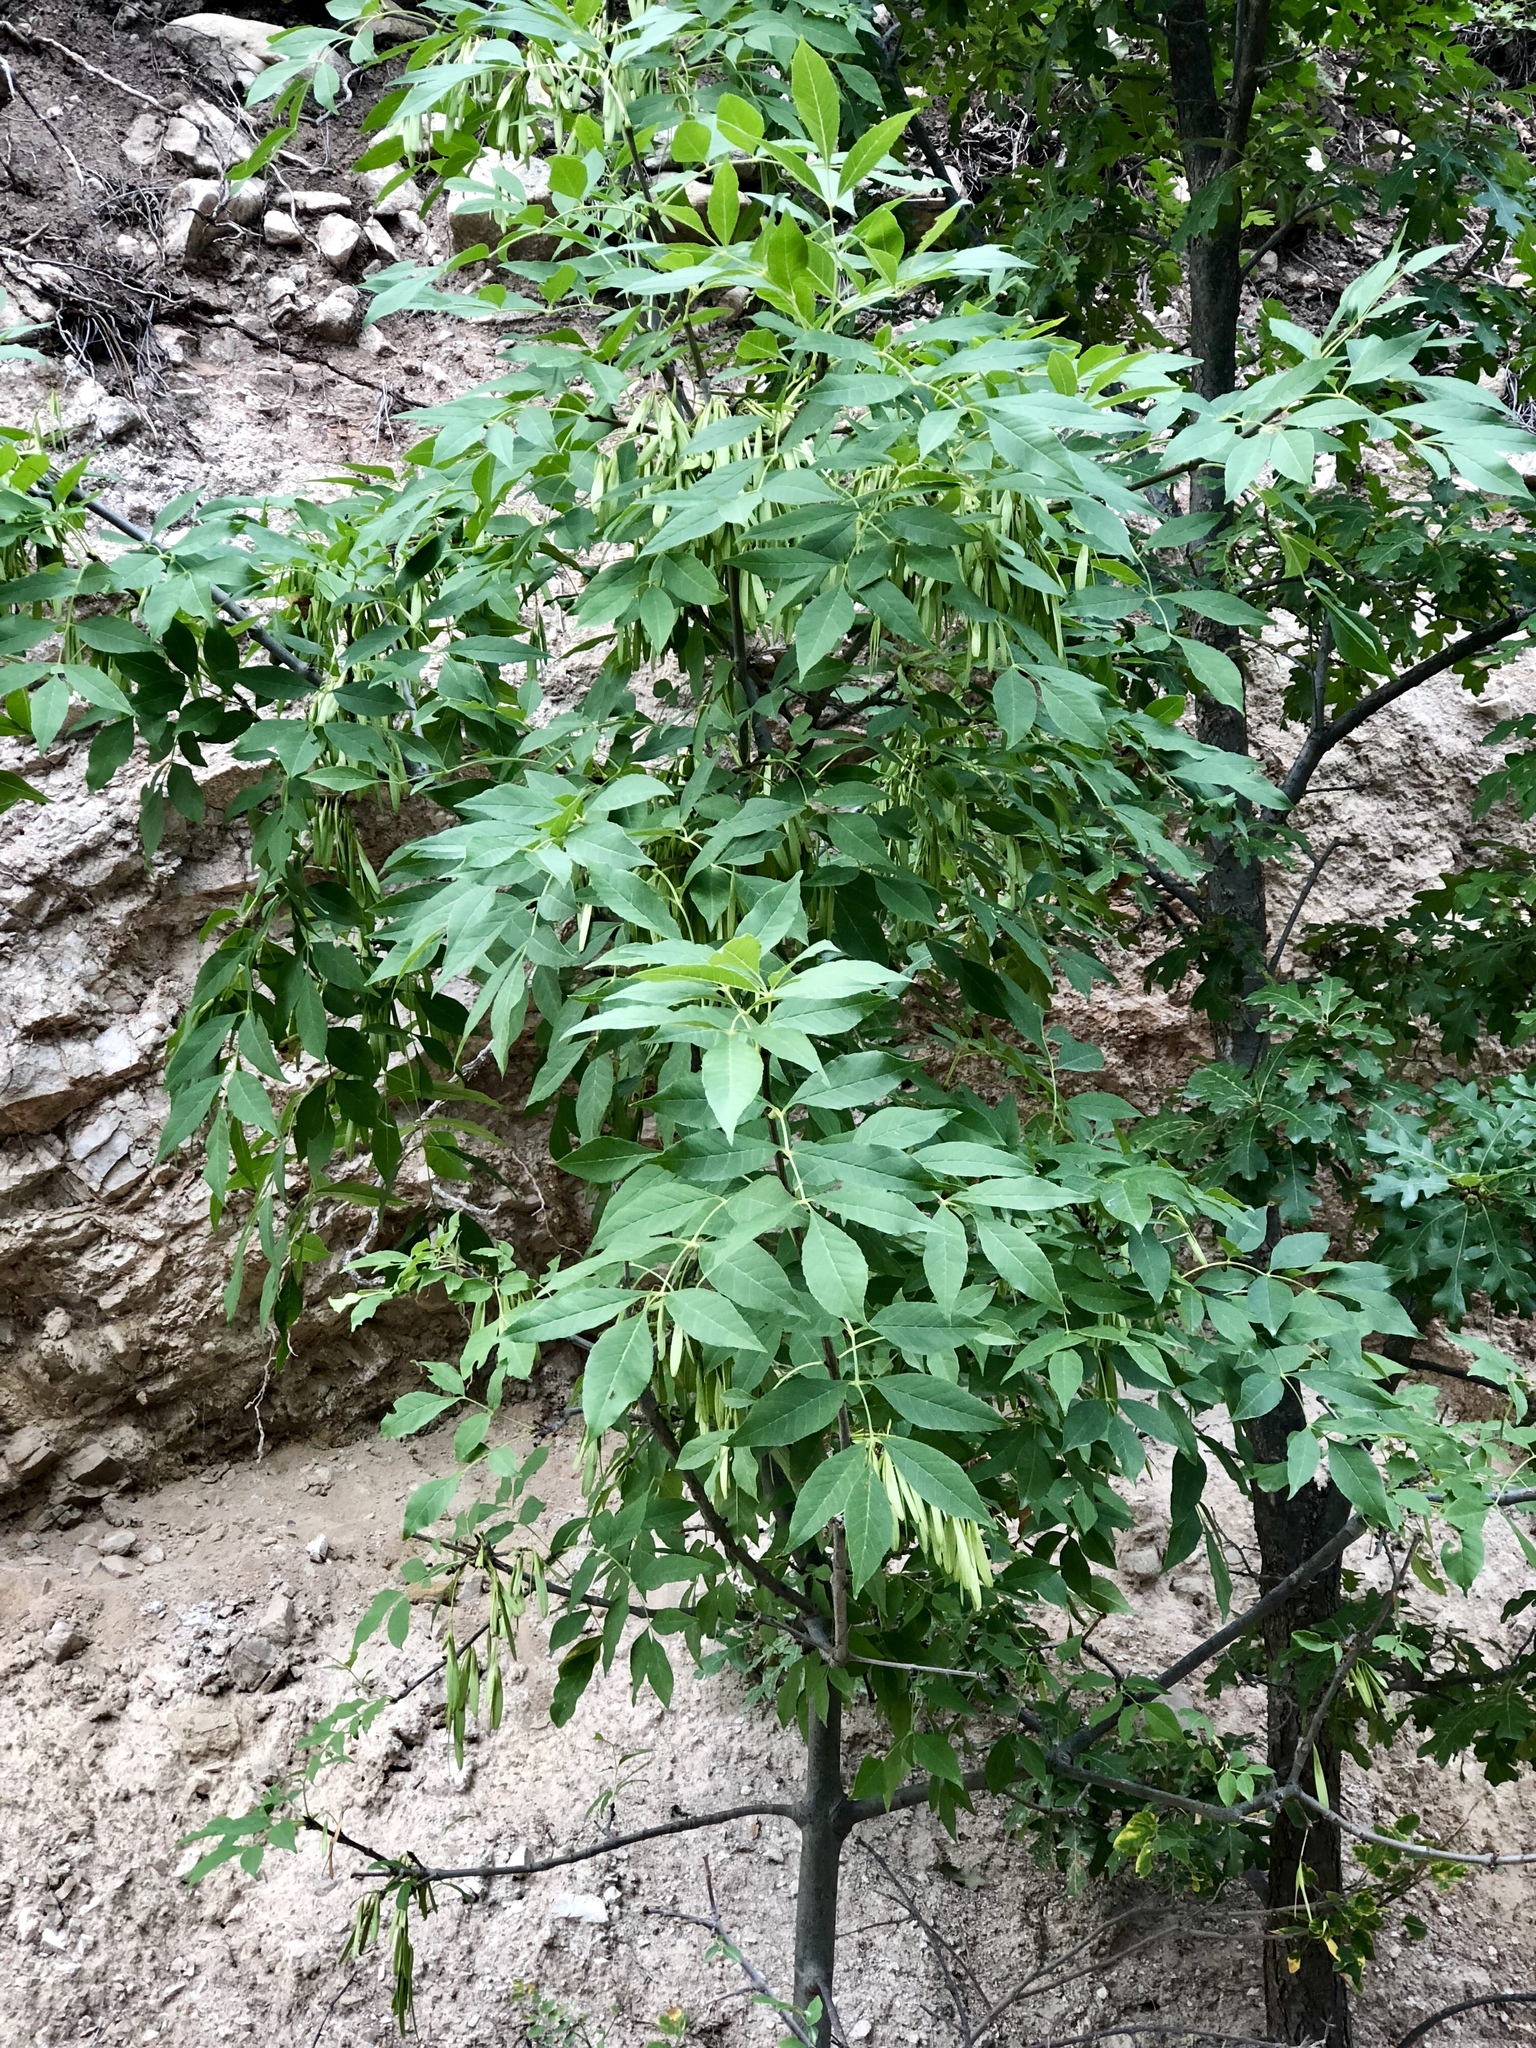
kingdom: Plantae
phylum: Tracheophyta
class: Magnoliopsida
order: Lamiales
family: Oleaceae
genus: Fraxinus
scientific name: Fraxinus velutina
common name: Arizon ash
